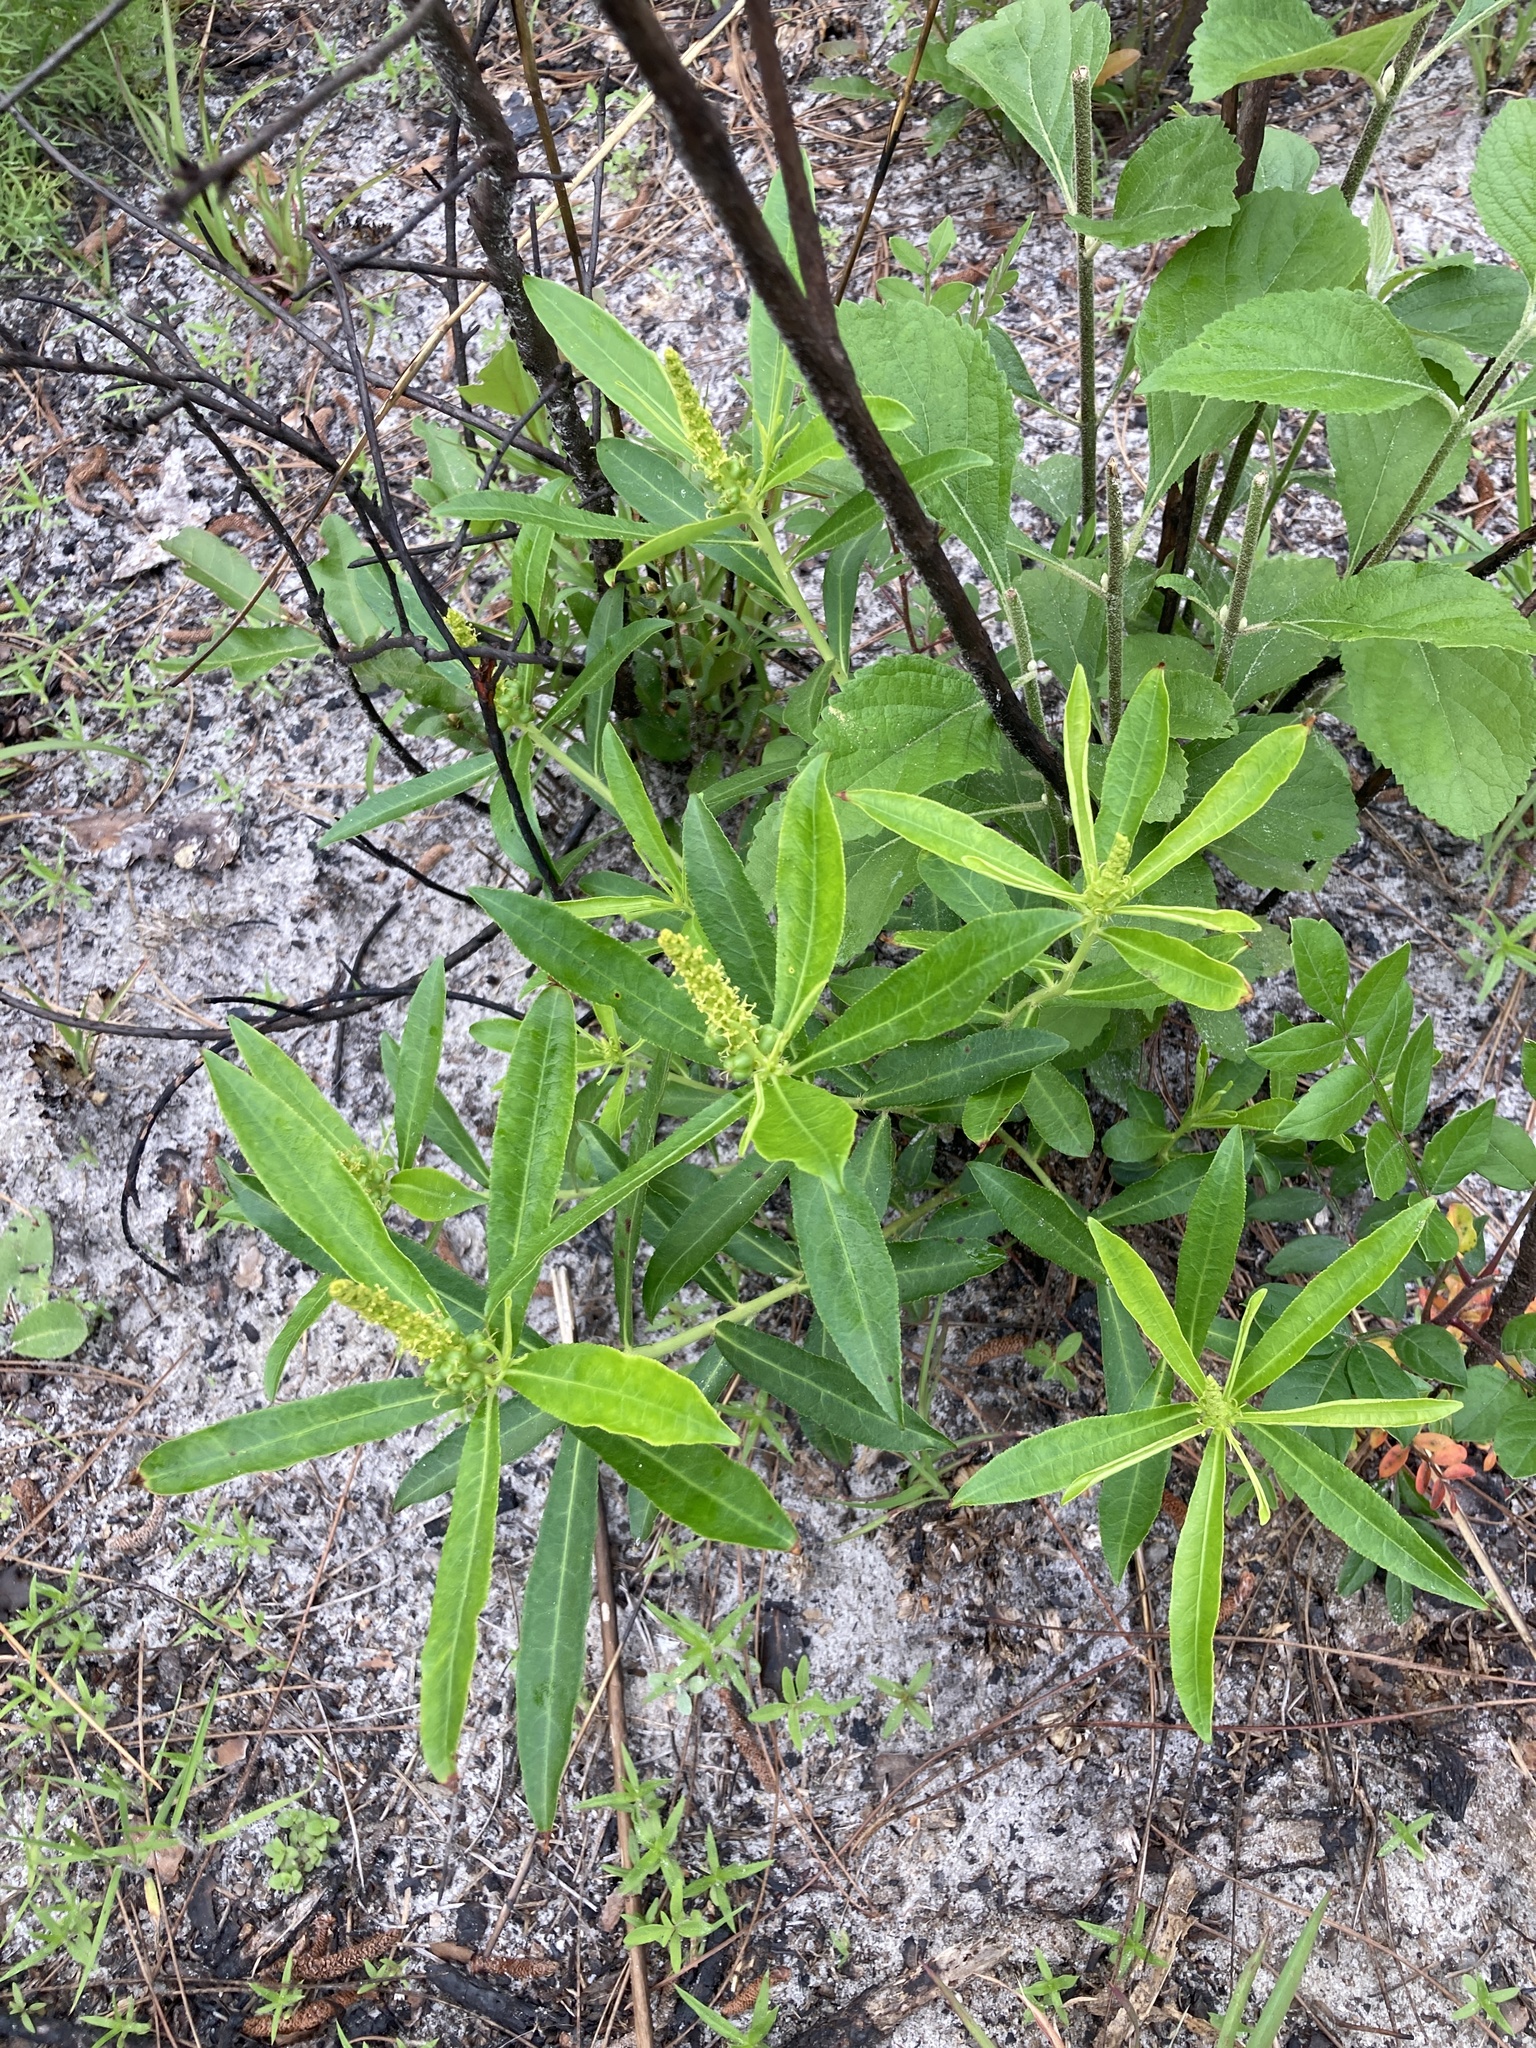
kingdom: Plantae
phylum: Tracheophyta
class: Magnoliopsida
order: Malpighiales
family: Euphorbiaceae
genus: Stillingia
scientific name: Stillingia sylvatica
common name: Queen's-delight
